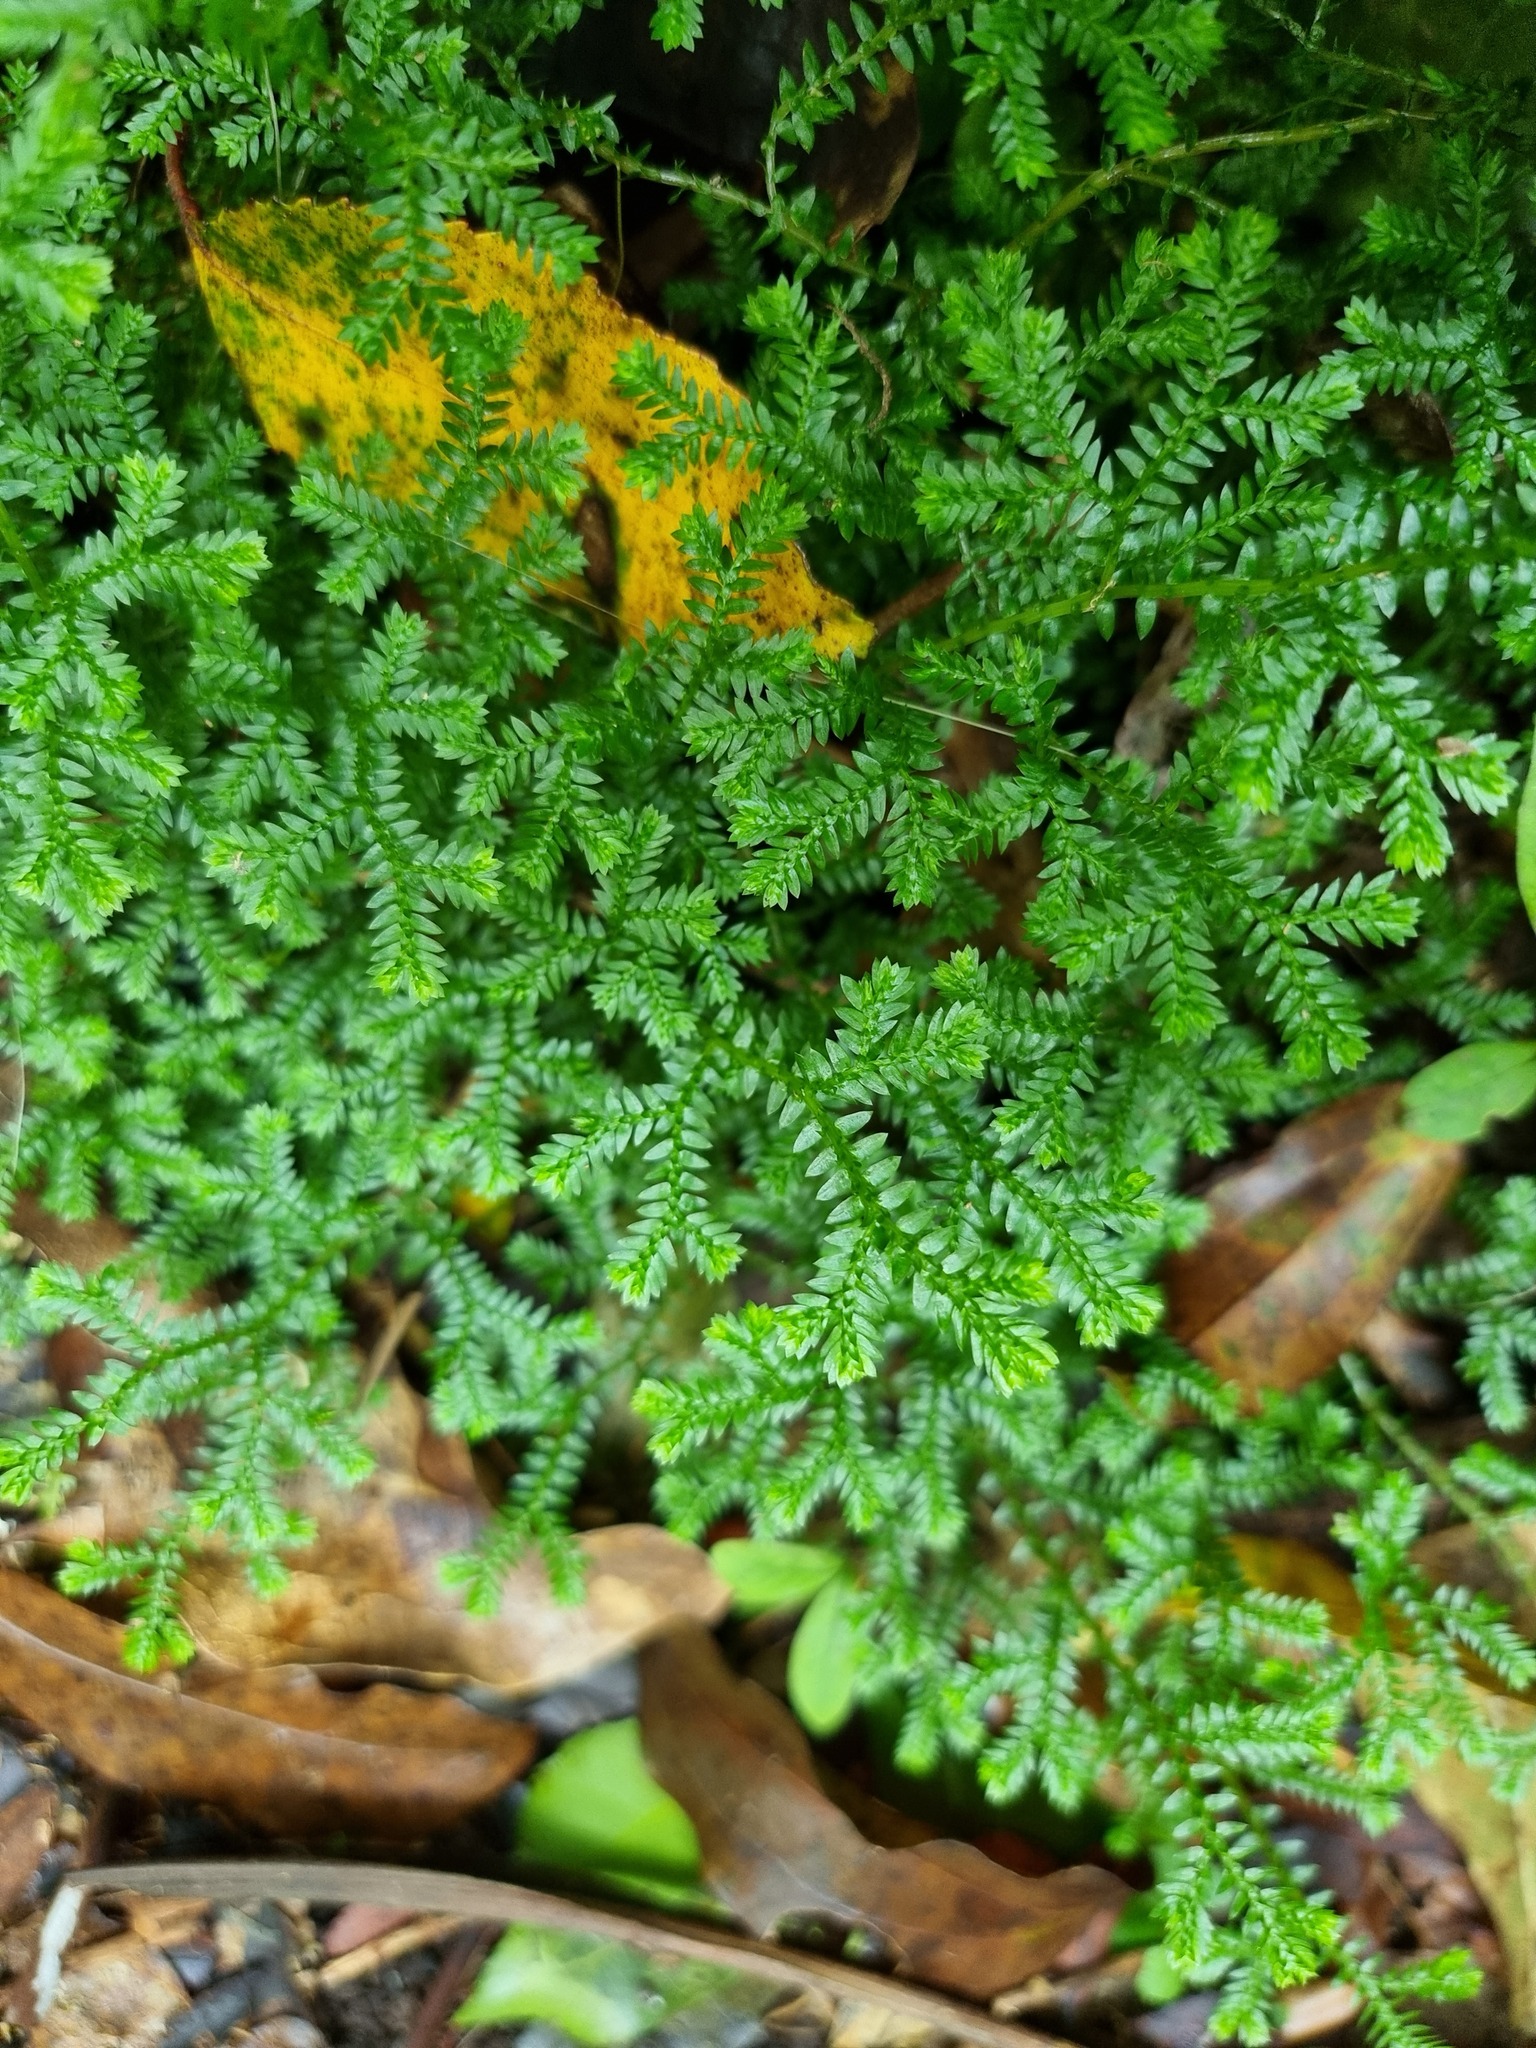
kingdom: Plantae
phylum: Tracheophyta
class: Lycopodiopsida
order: Selaginellales
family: Selaginellaceae
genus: Selaginella
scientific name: Selaginella kraussiana
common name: Krauss' spikemoss
